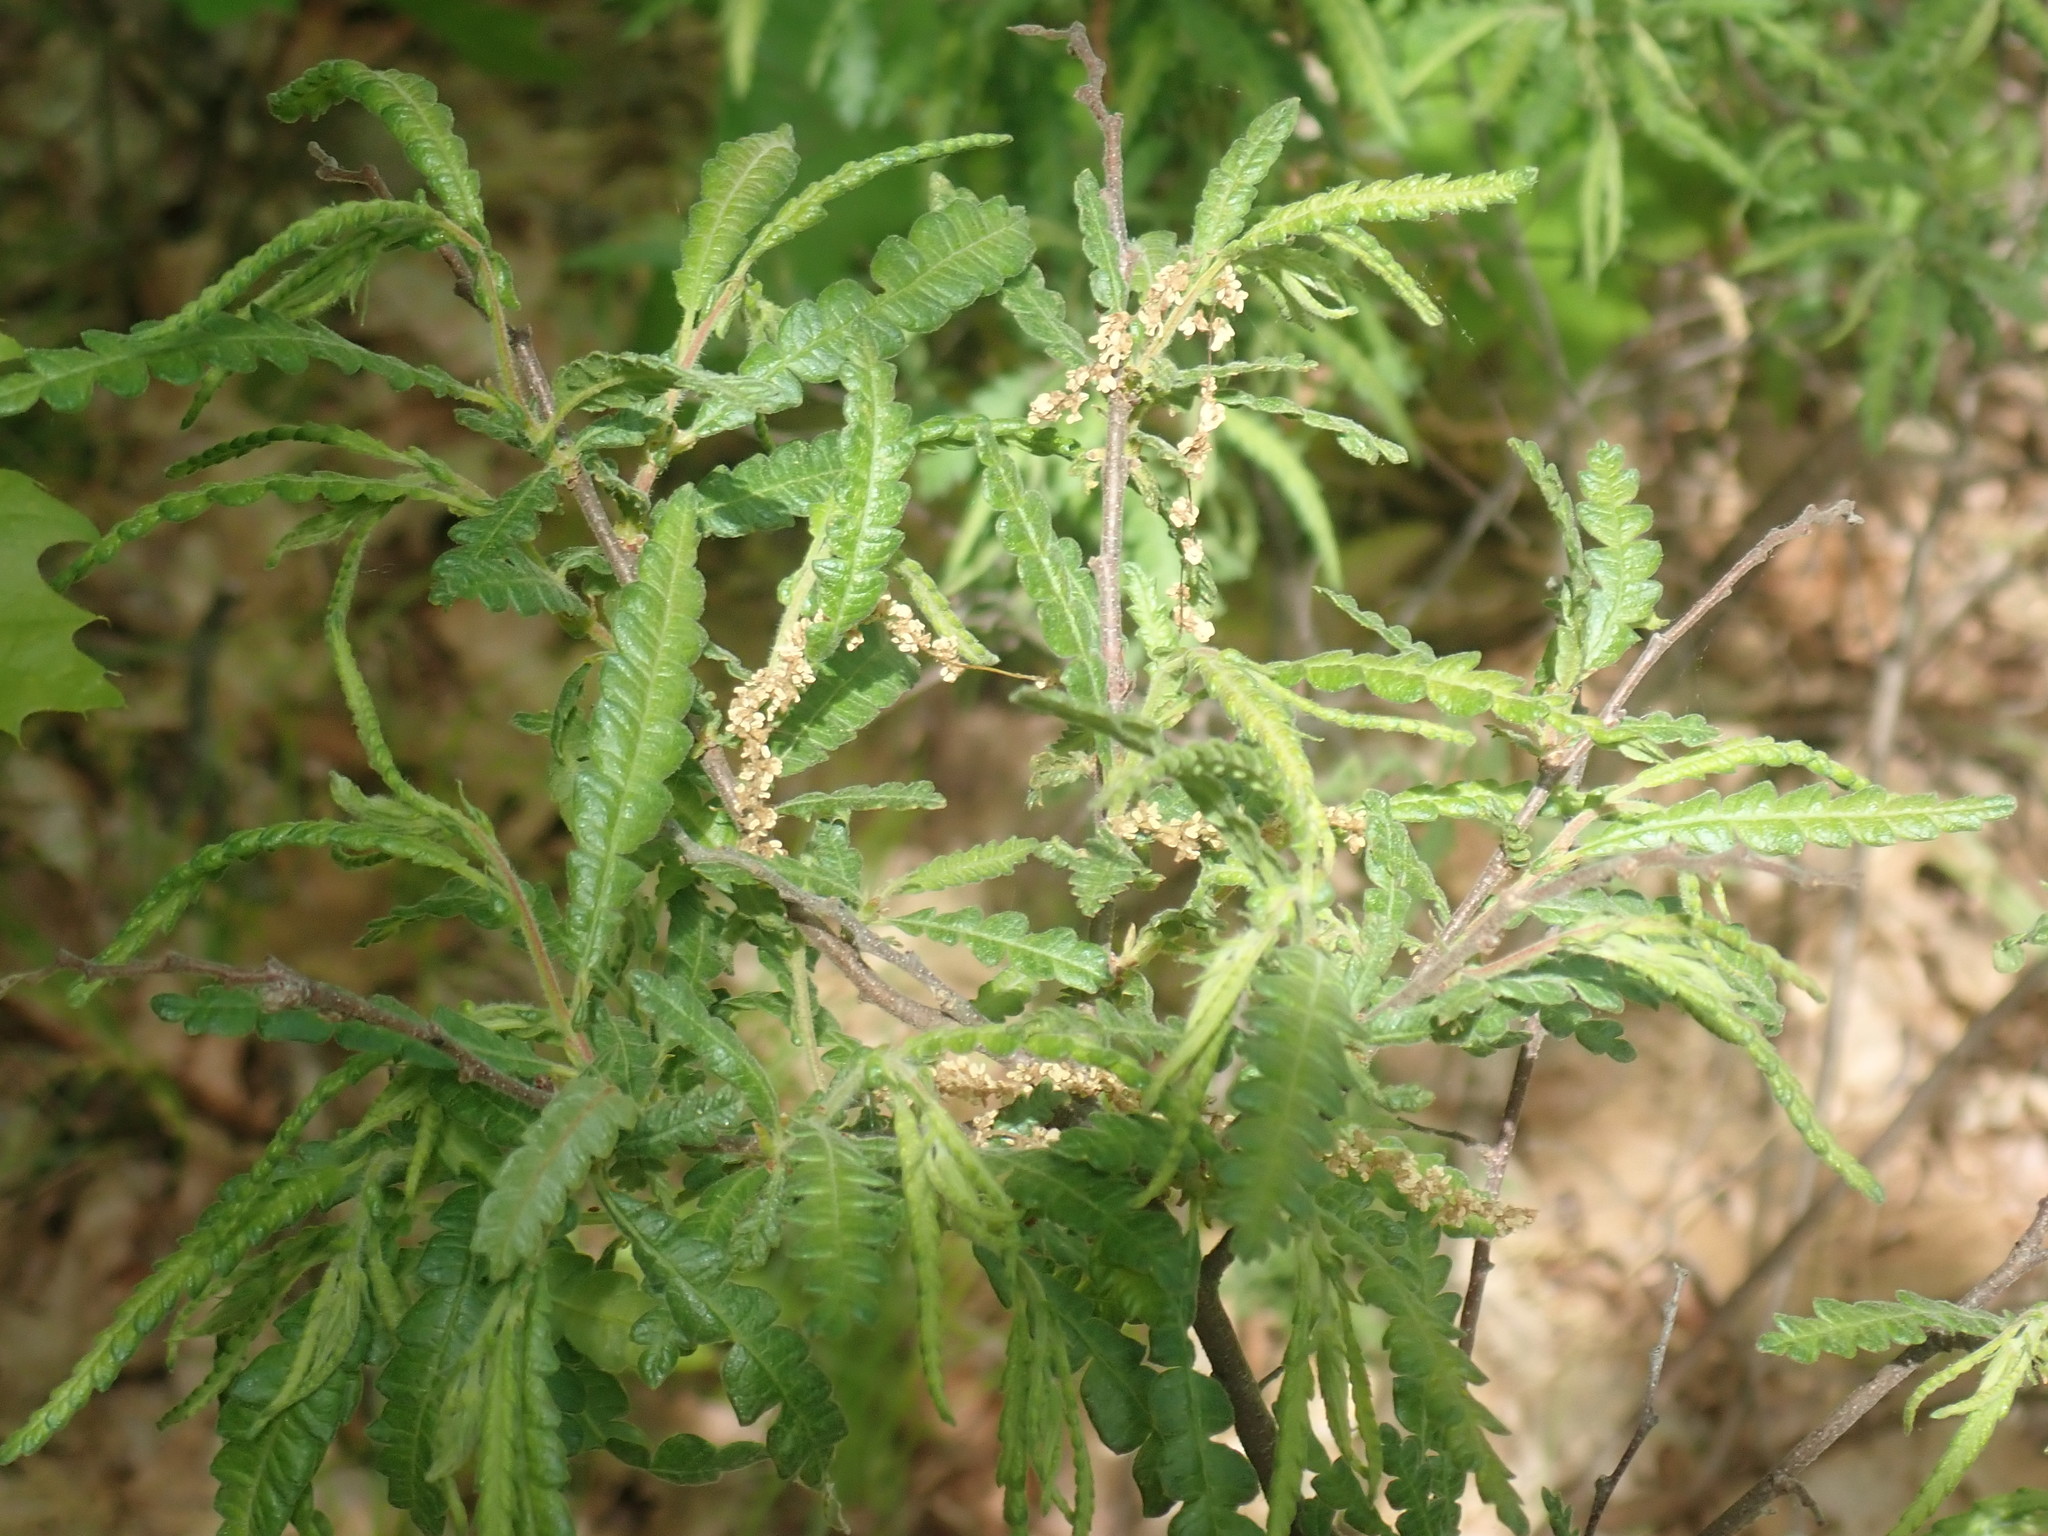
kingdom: Plantae
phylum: Tracheophyta
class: Magnoliopsida
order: Fagales
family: Myricaceae
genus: Comptonia
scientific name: Comptonia peregrina
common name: Sweet-fern
